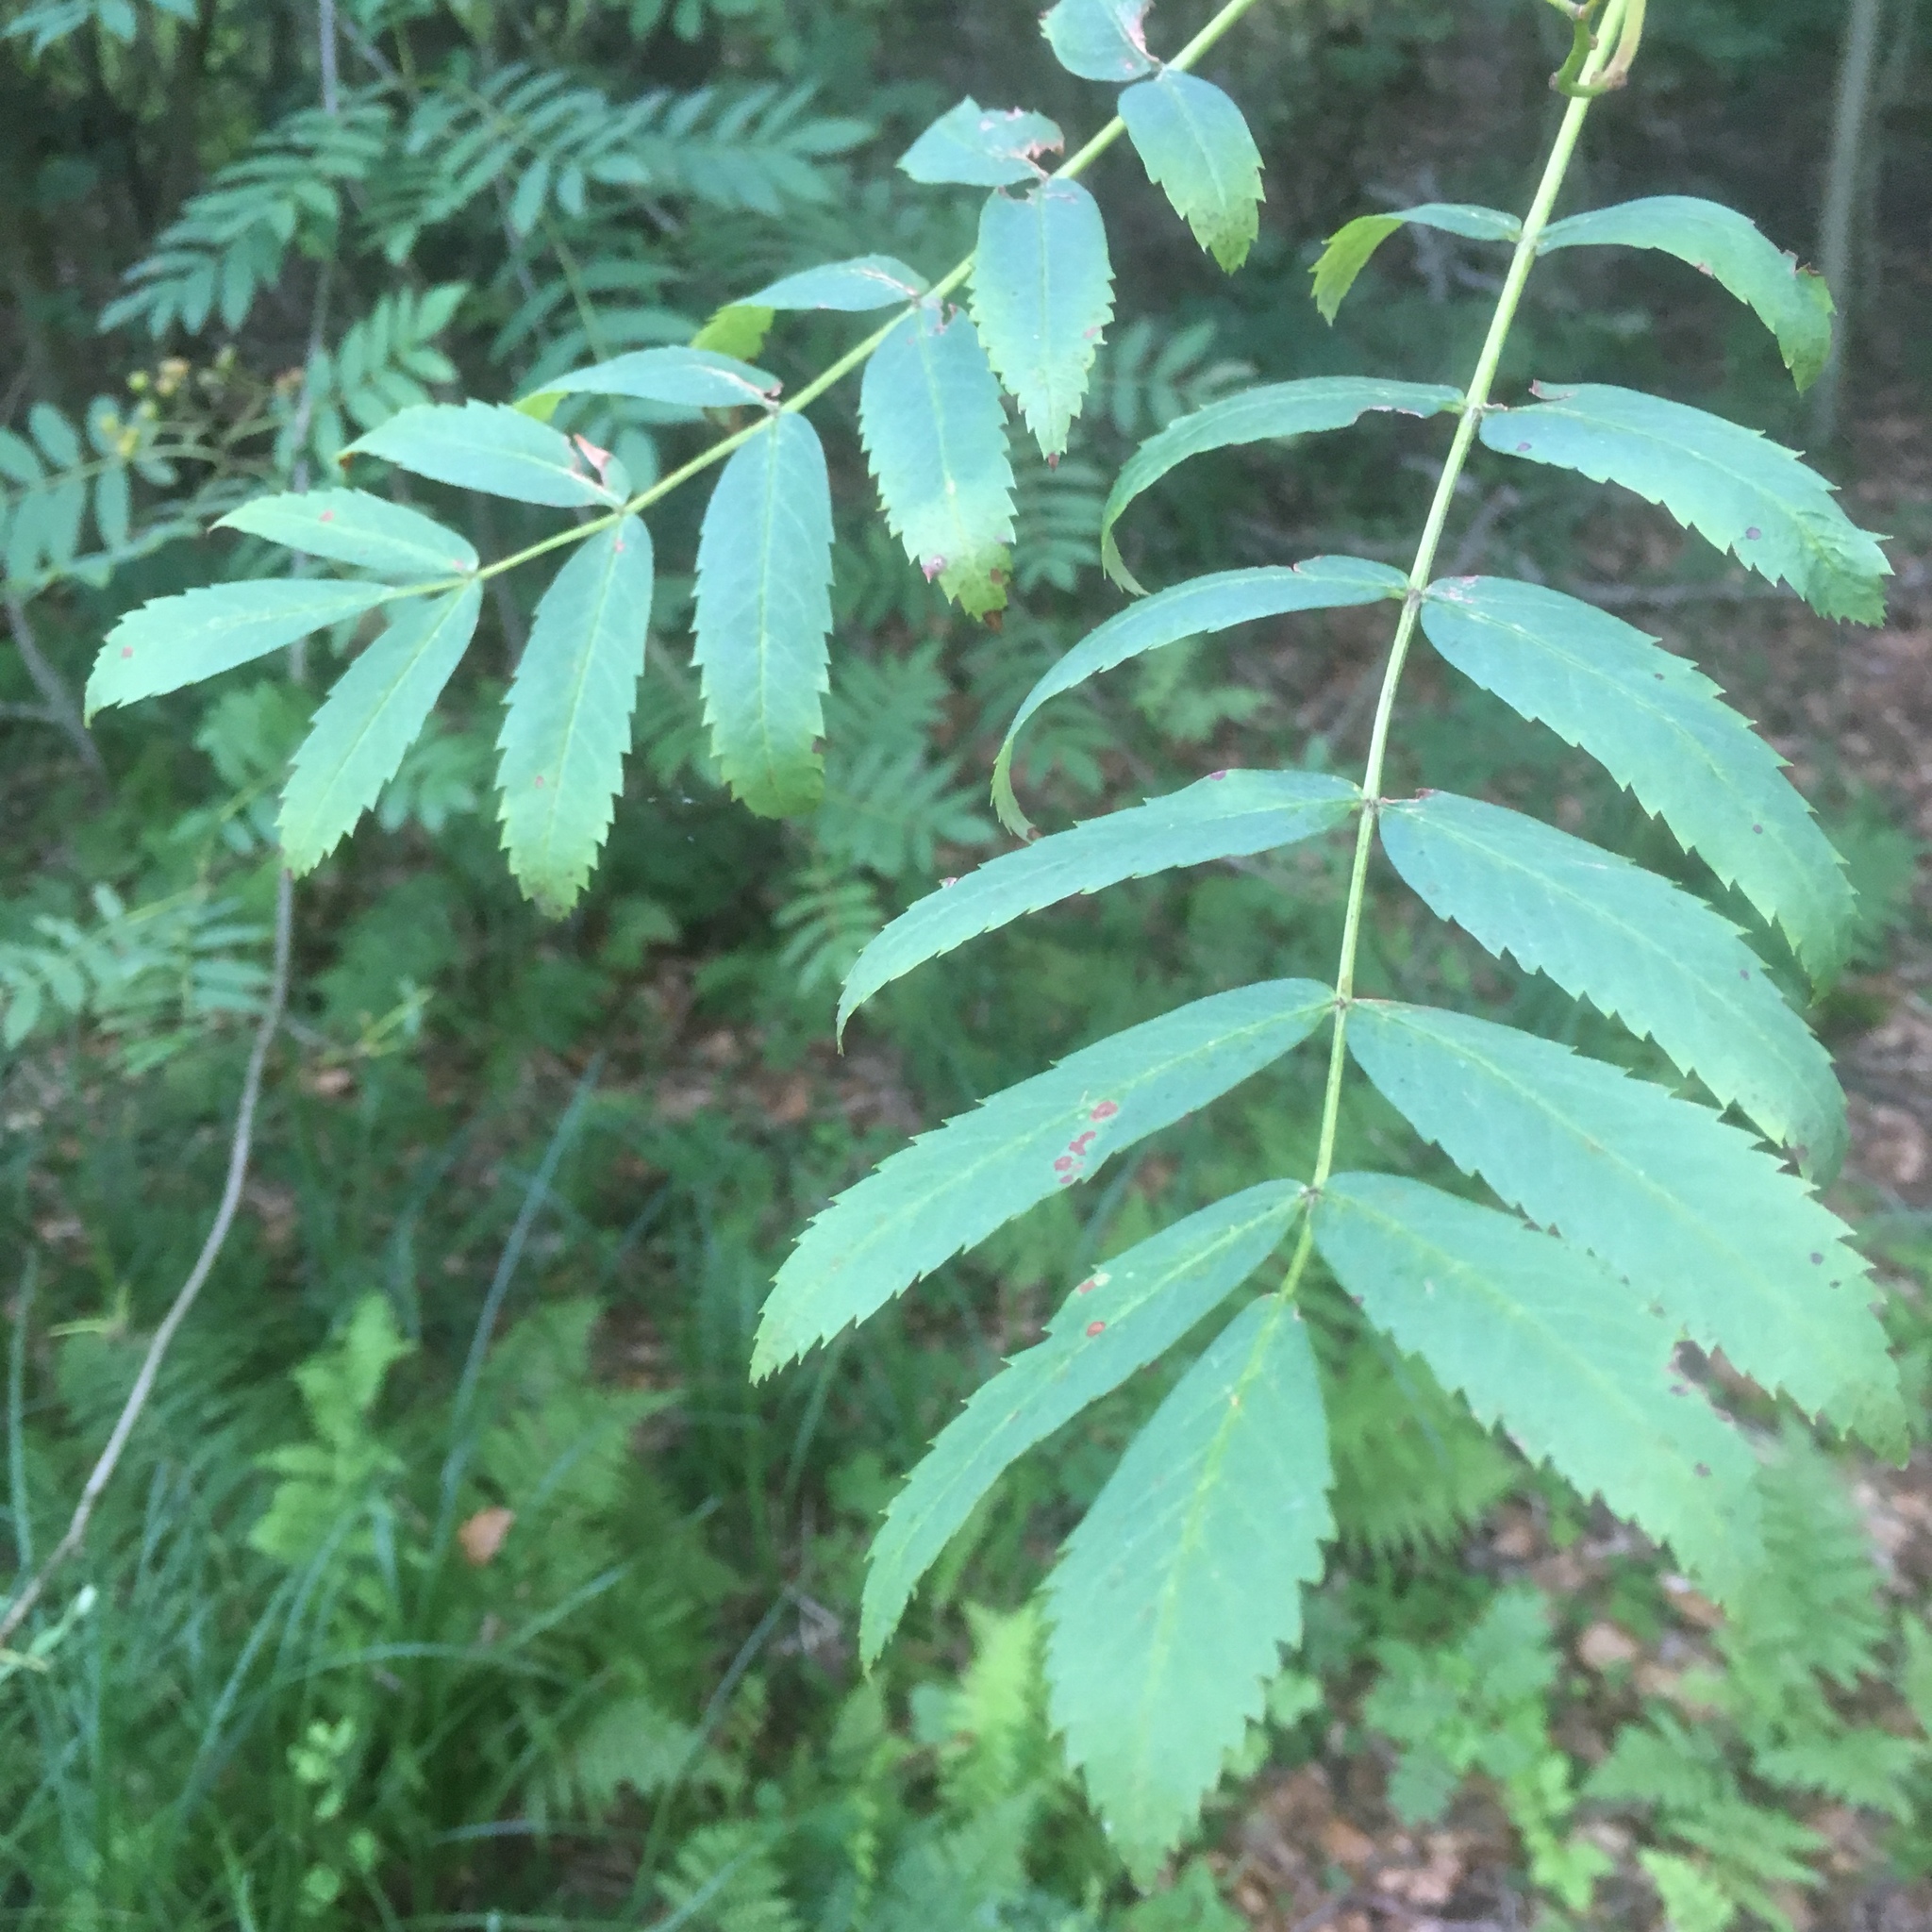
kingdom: Plantae
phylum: Tracheophyta
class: Magnoliopsida
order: Rosales
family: Rosaceae
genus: Sorbus
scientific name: Sorbus aucuparia
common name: Rowan
